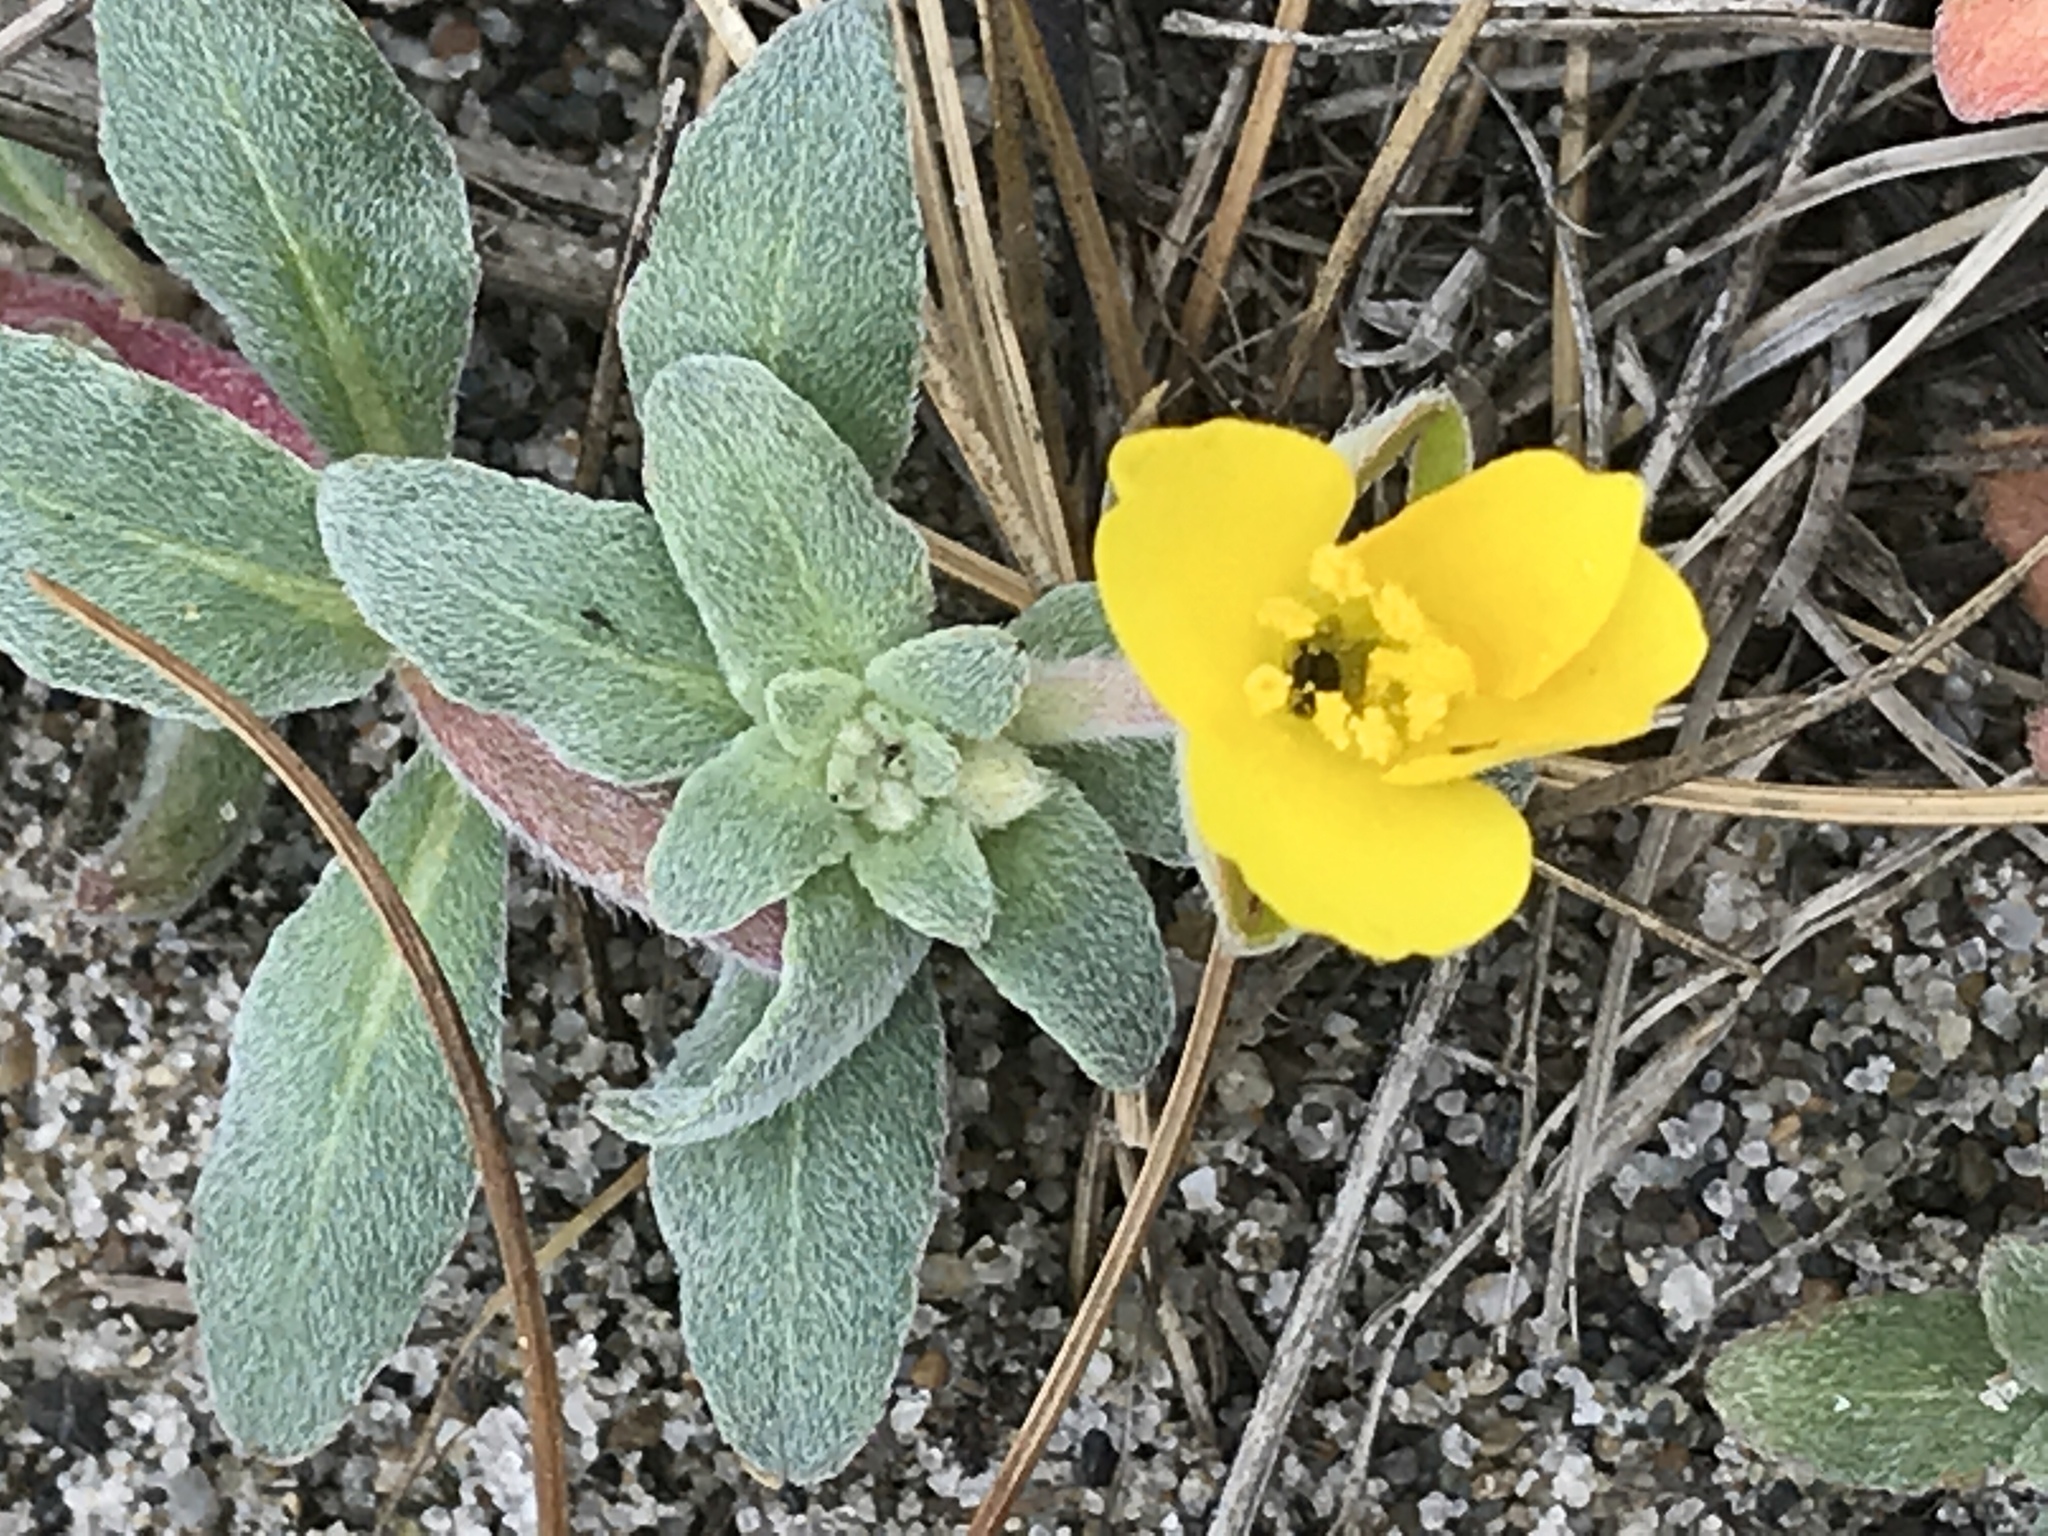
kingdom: Plantae
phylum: Tracheophyta
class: Magnoliopsida
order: Myrtales
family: Onagraceae
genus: Camissoniopsis
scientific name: Camissoniopsis cheiranthifolia
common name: Beach suncup
